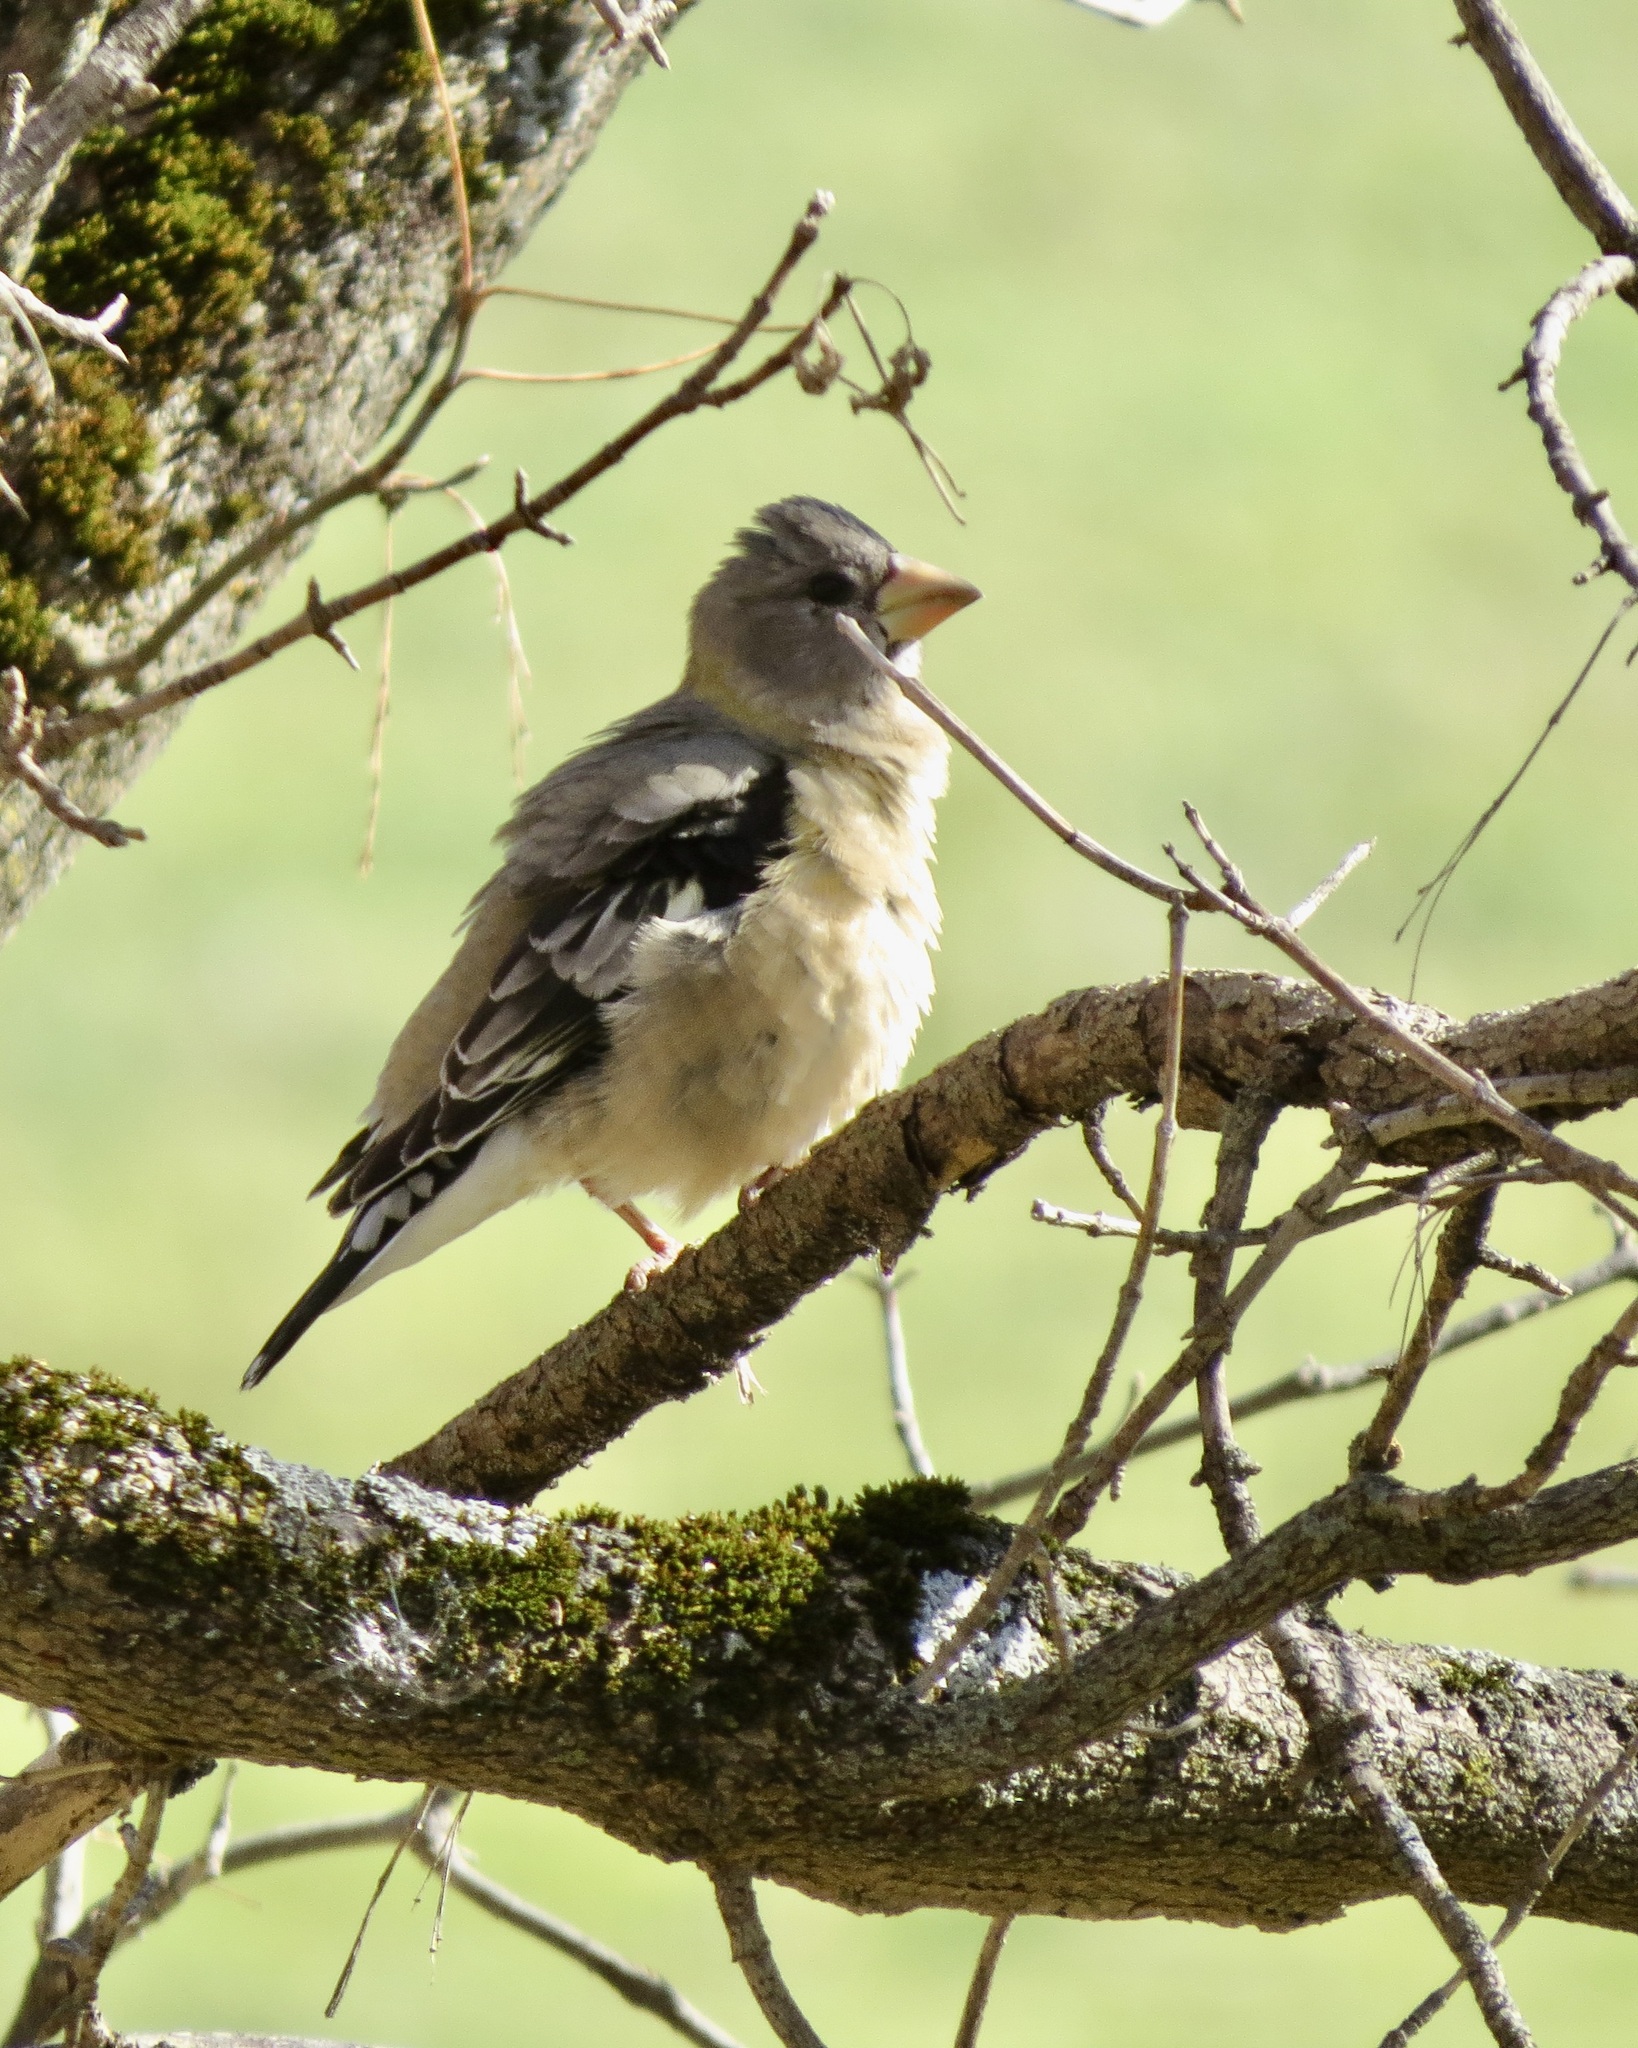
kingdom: Animalia
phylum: Chordata
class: Aves
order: Passeriformes
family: Fringillidae
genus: Hesperiphona
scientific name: Hesperiphona vespertina
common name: Evening grosbeak
